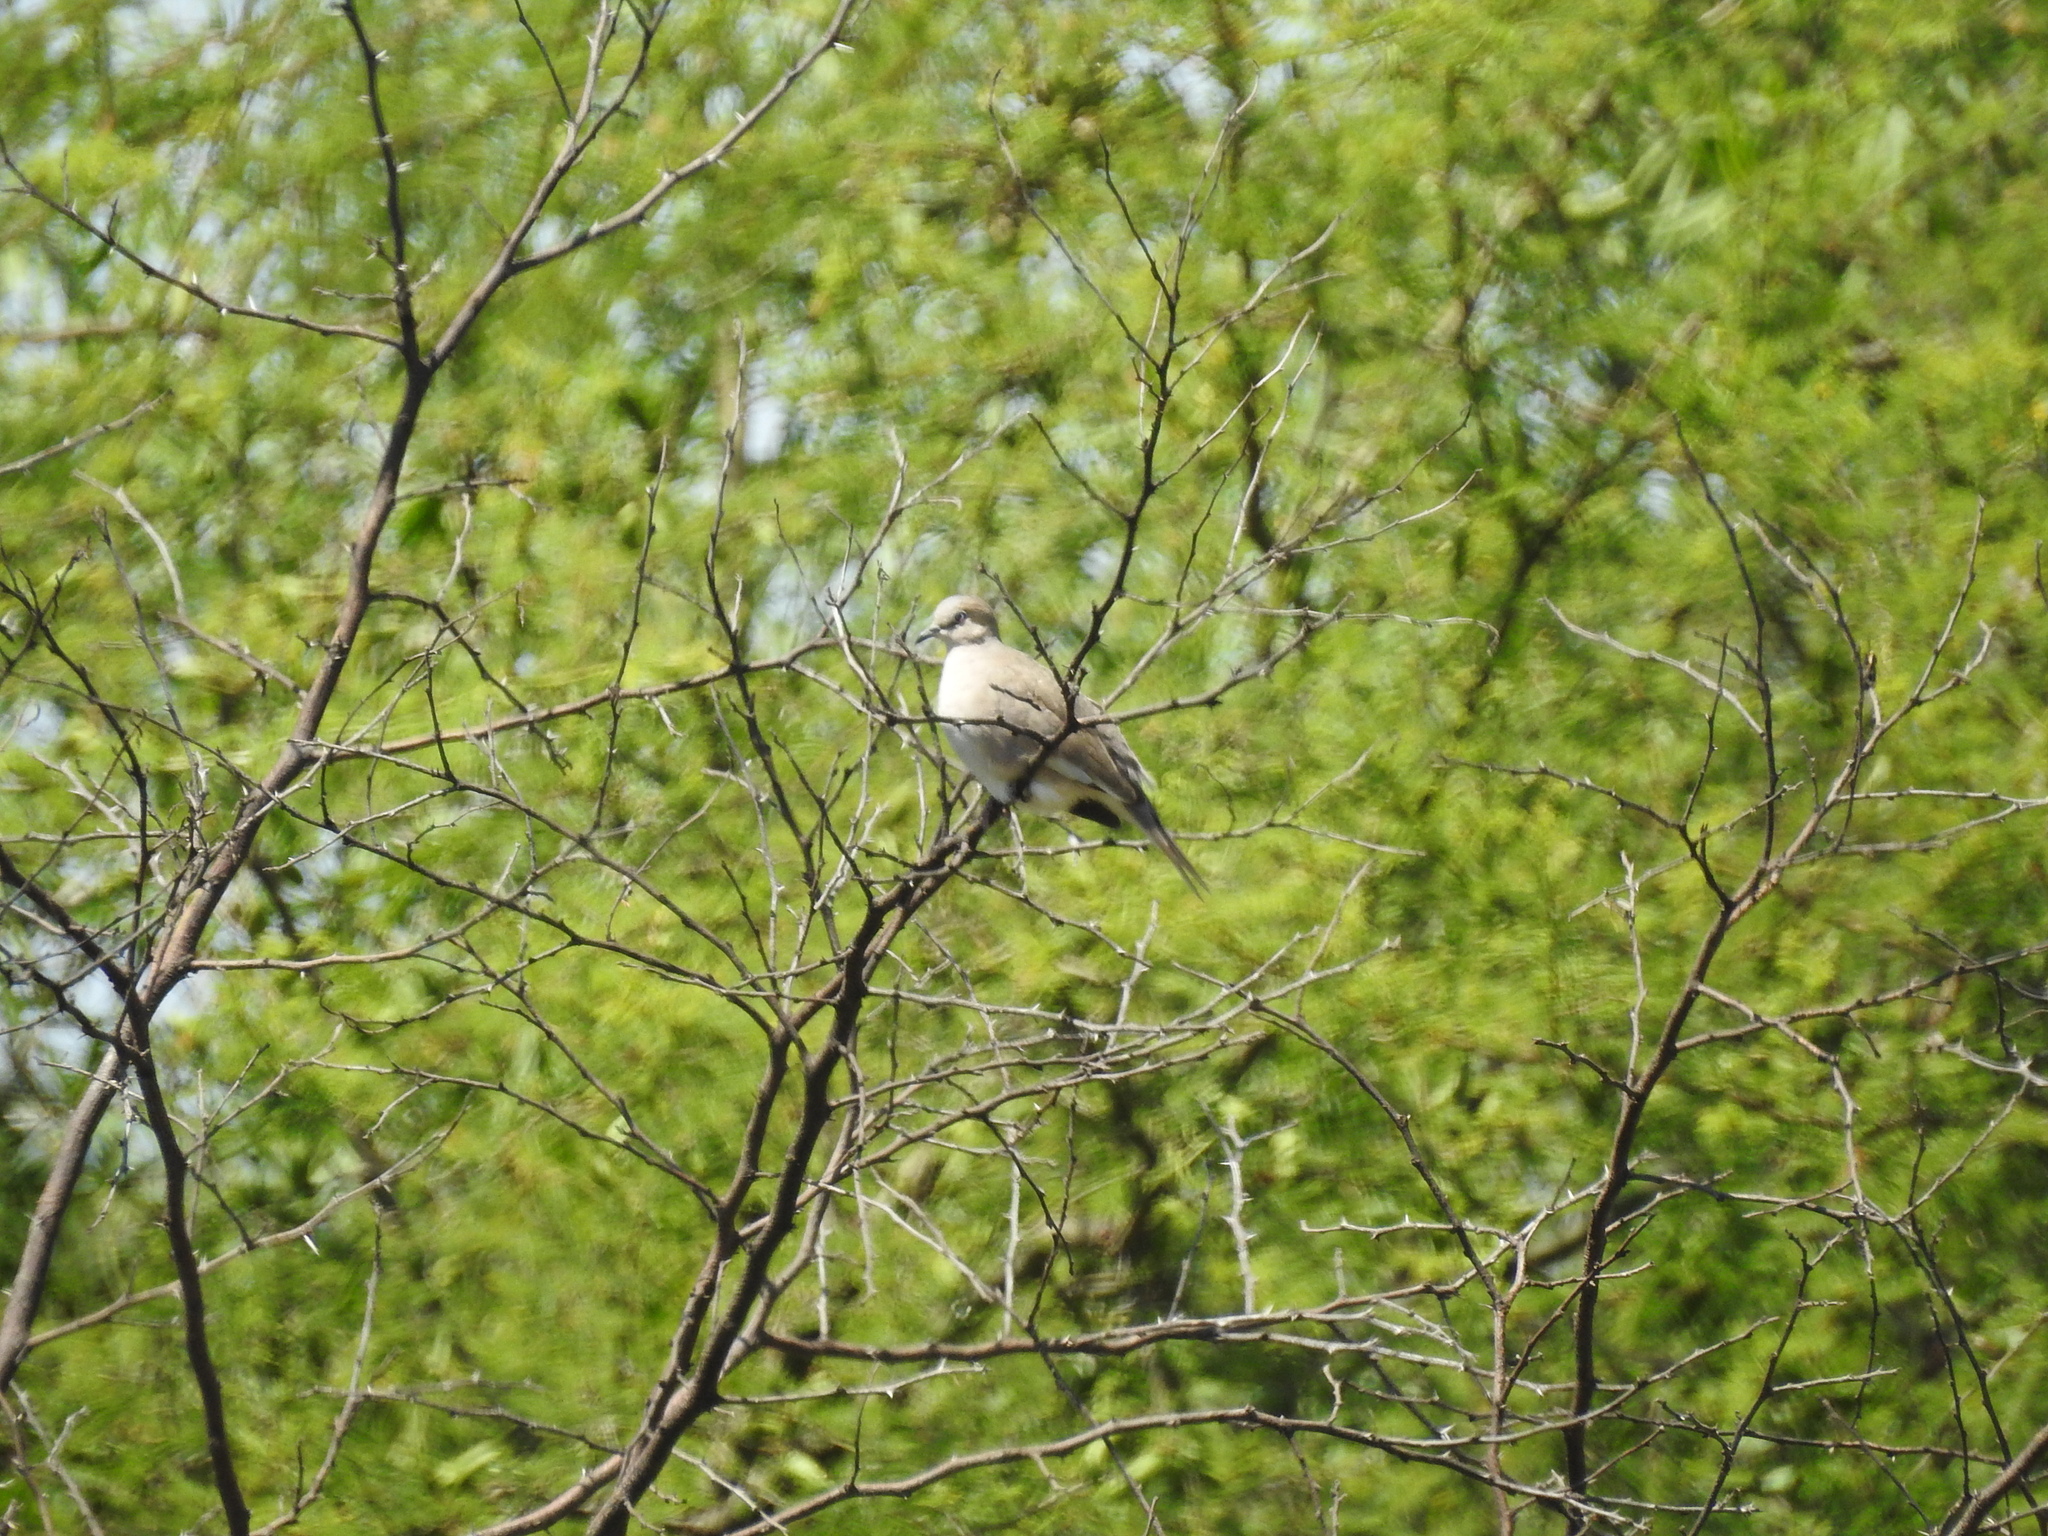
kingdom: Animalia
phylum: Chordata
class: Aves
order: Columbiformes
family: Columbidae
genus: Columbina
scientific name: Columbina picui
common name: Picui ground dove
